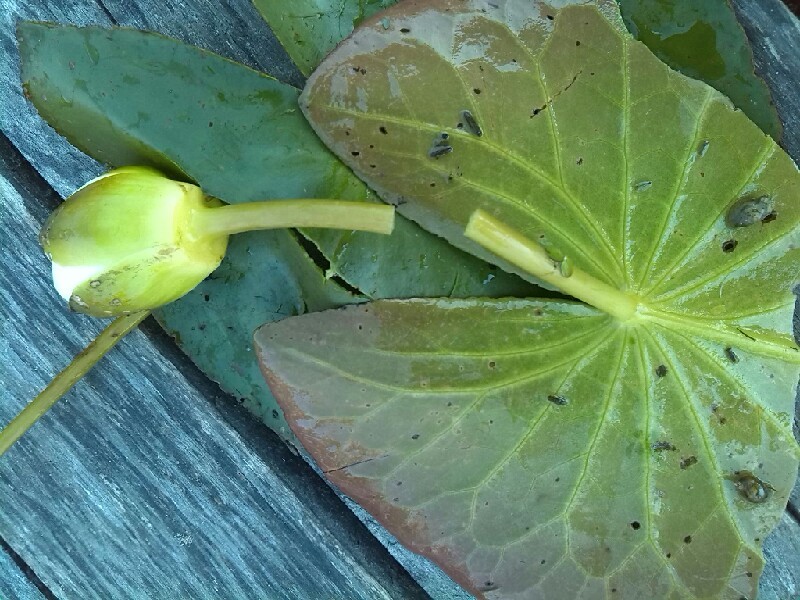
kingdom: Plantae
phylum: Tracheophyta
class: Magnoliopsida
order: Nymphaeales
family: Nymphaeaceae
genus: Nymphaea
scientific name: Nymphaea candida
